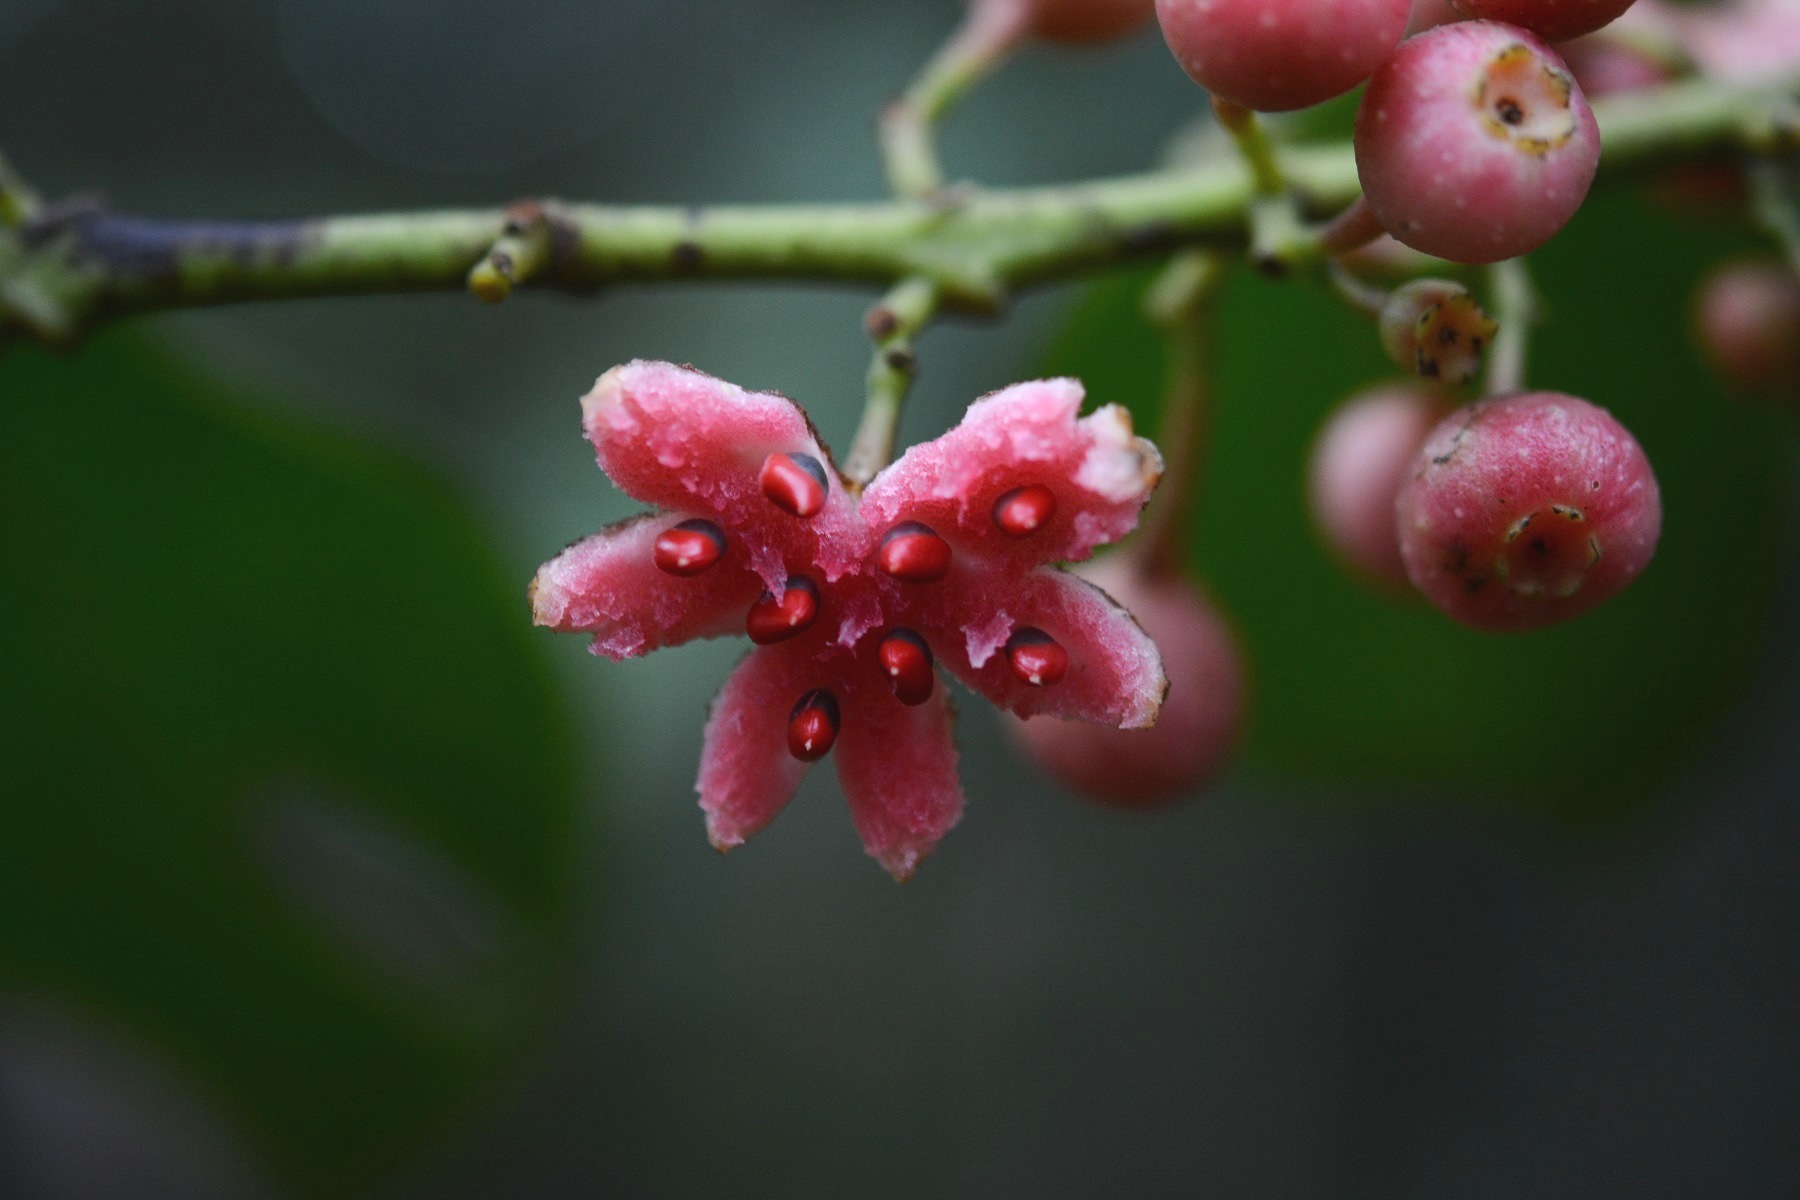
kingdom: Plantae
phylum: Tracheophyta
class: Magnoliopsida
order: Laurales
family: Siparunaceae
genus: Siparuna
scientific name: Siparuna thecaphora
